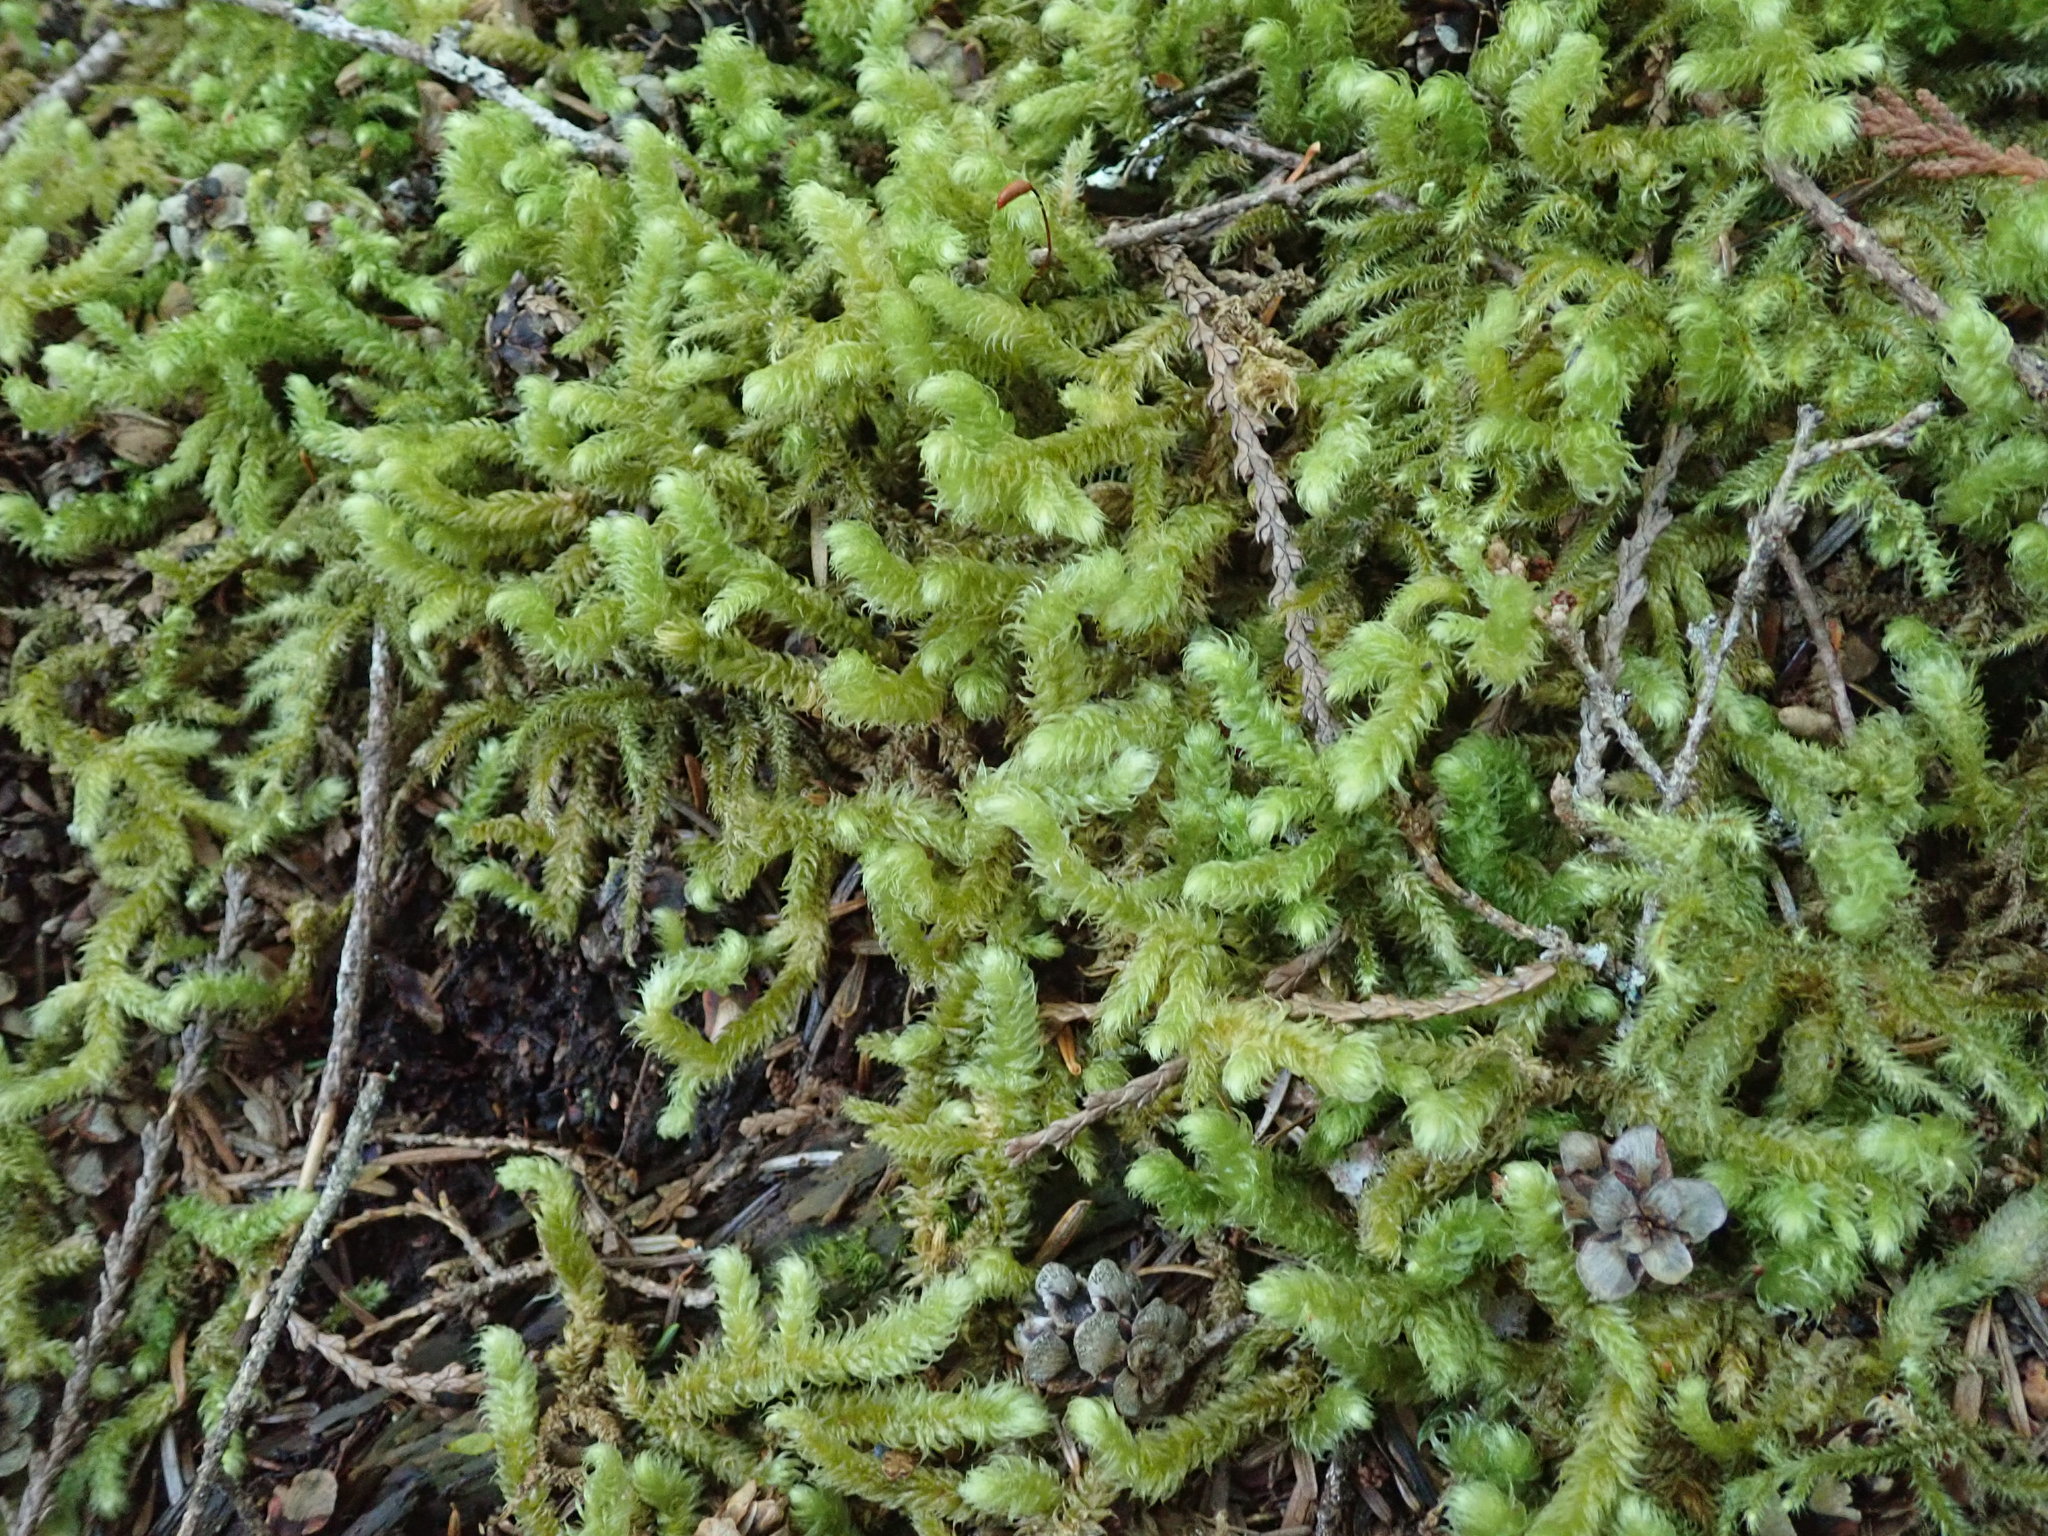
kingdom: Plantae
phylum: Bryophyta
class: Bryopsida
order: Hypnales
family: Hylocomiaceae
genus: Rhytidiopsis
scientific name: Rhytidiopsis robusta
